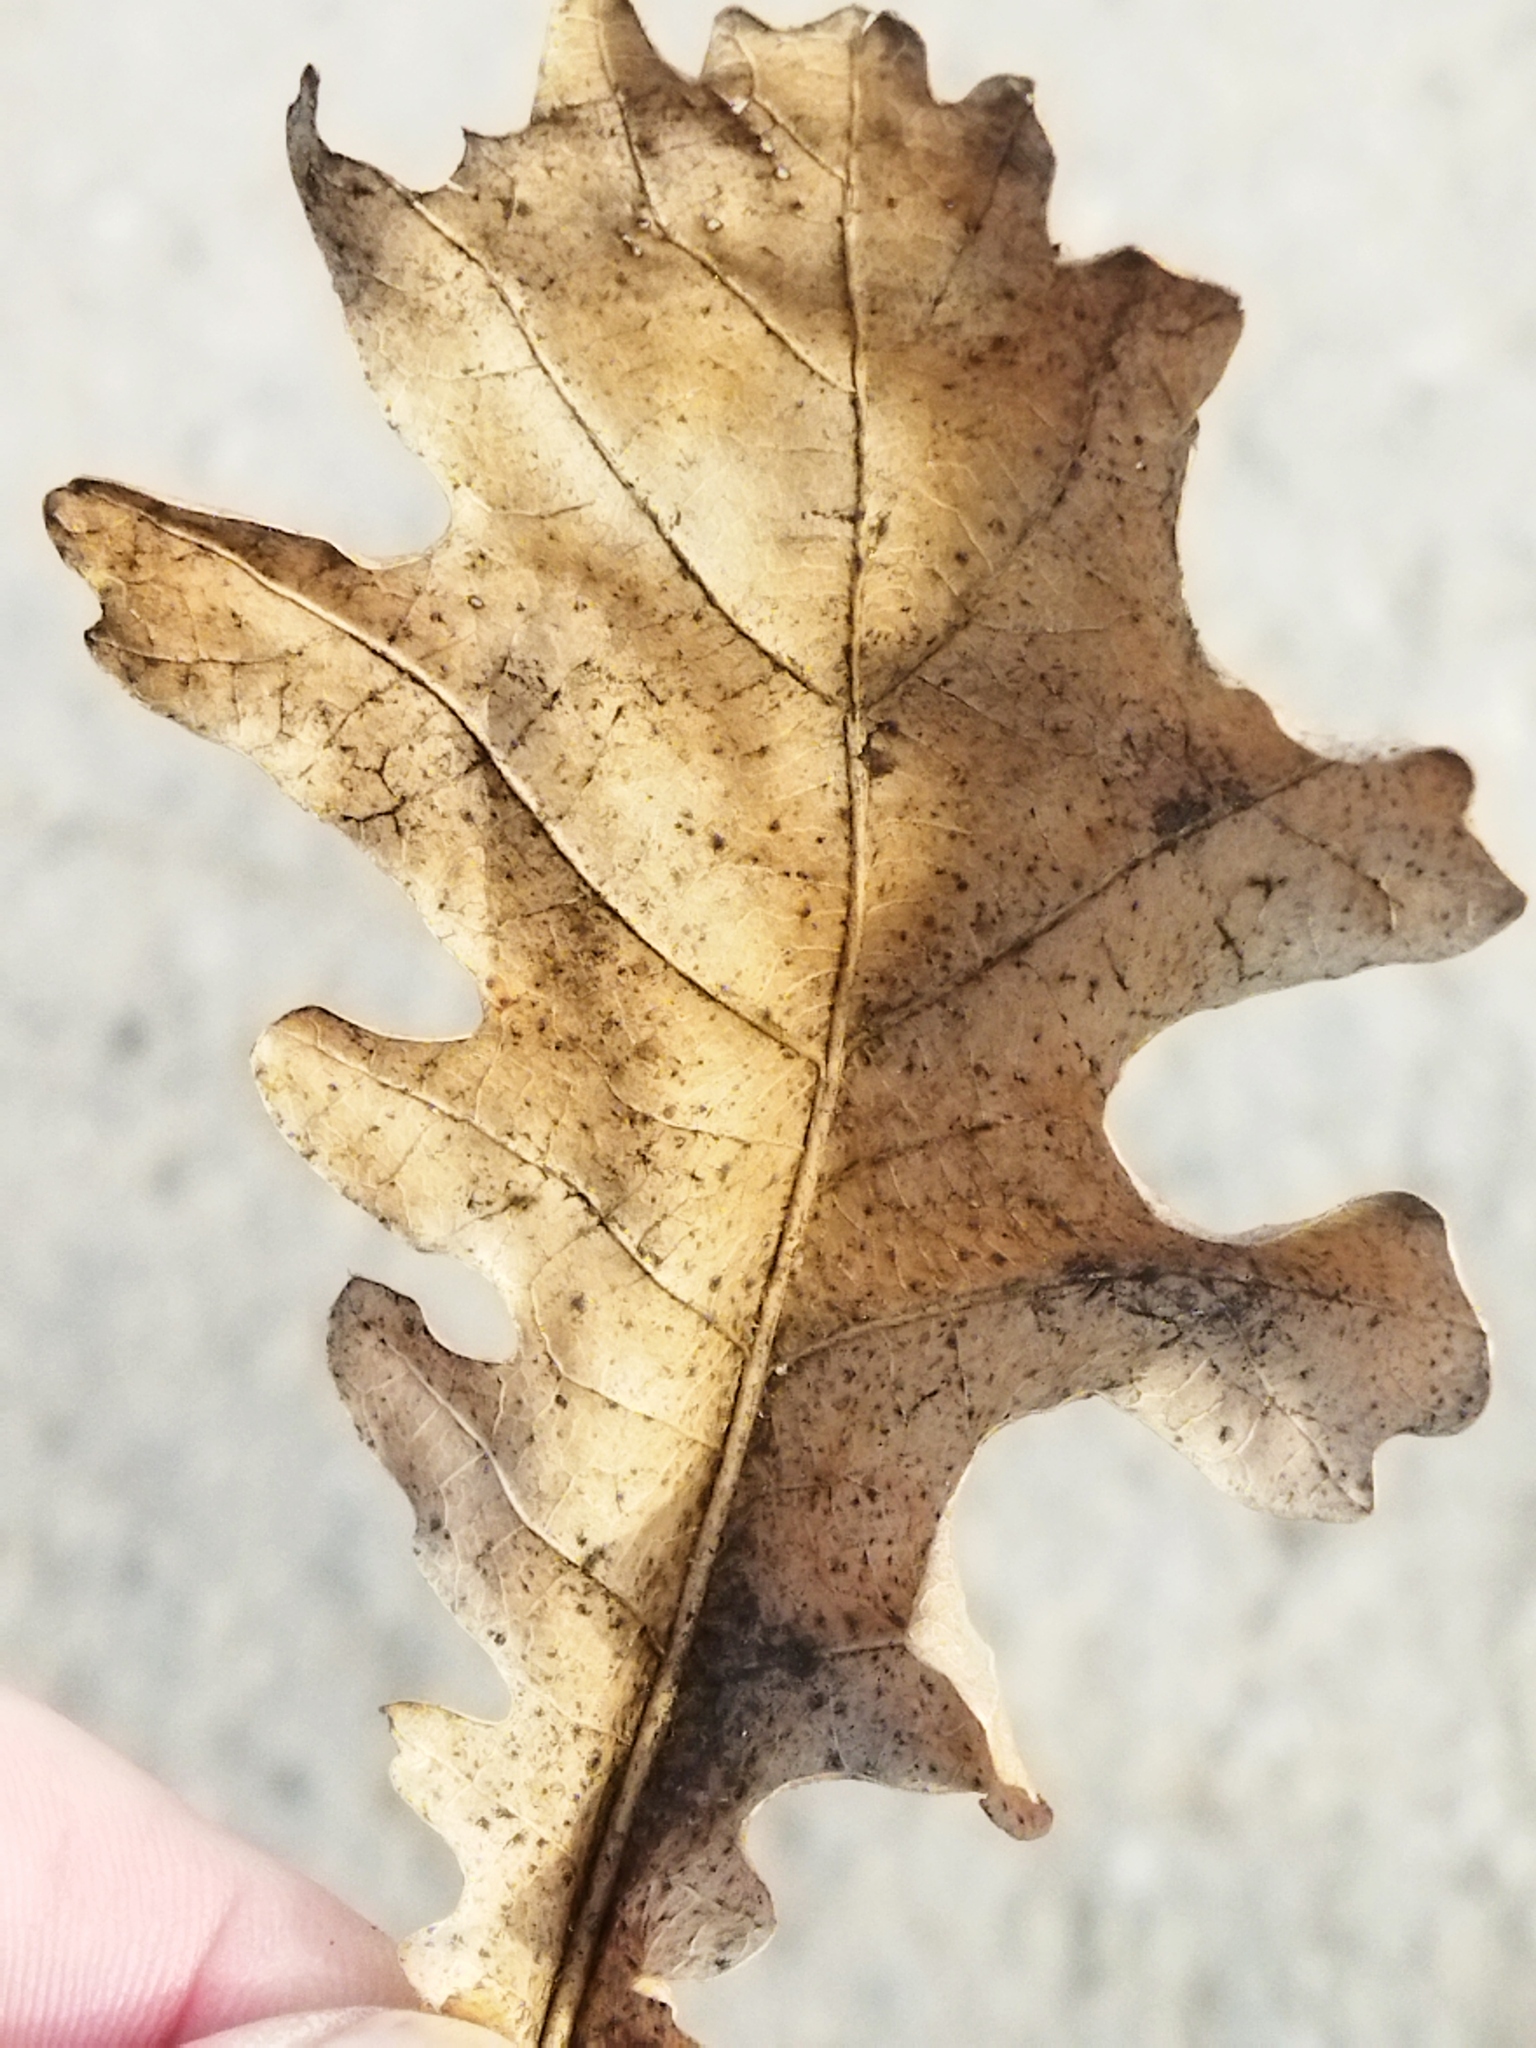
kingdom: Animalia
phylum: Arthropoda
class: Insecta
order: Hymenoptera
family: Cynipidae
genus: Cynips
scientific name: Cynips quercusfolii
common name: Cherry gall
